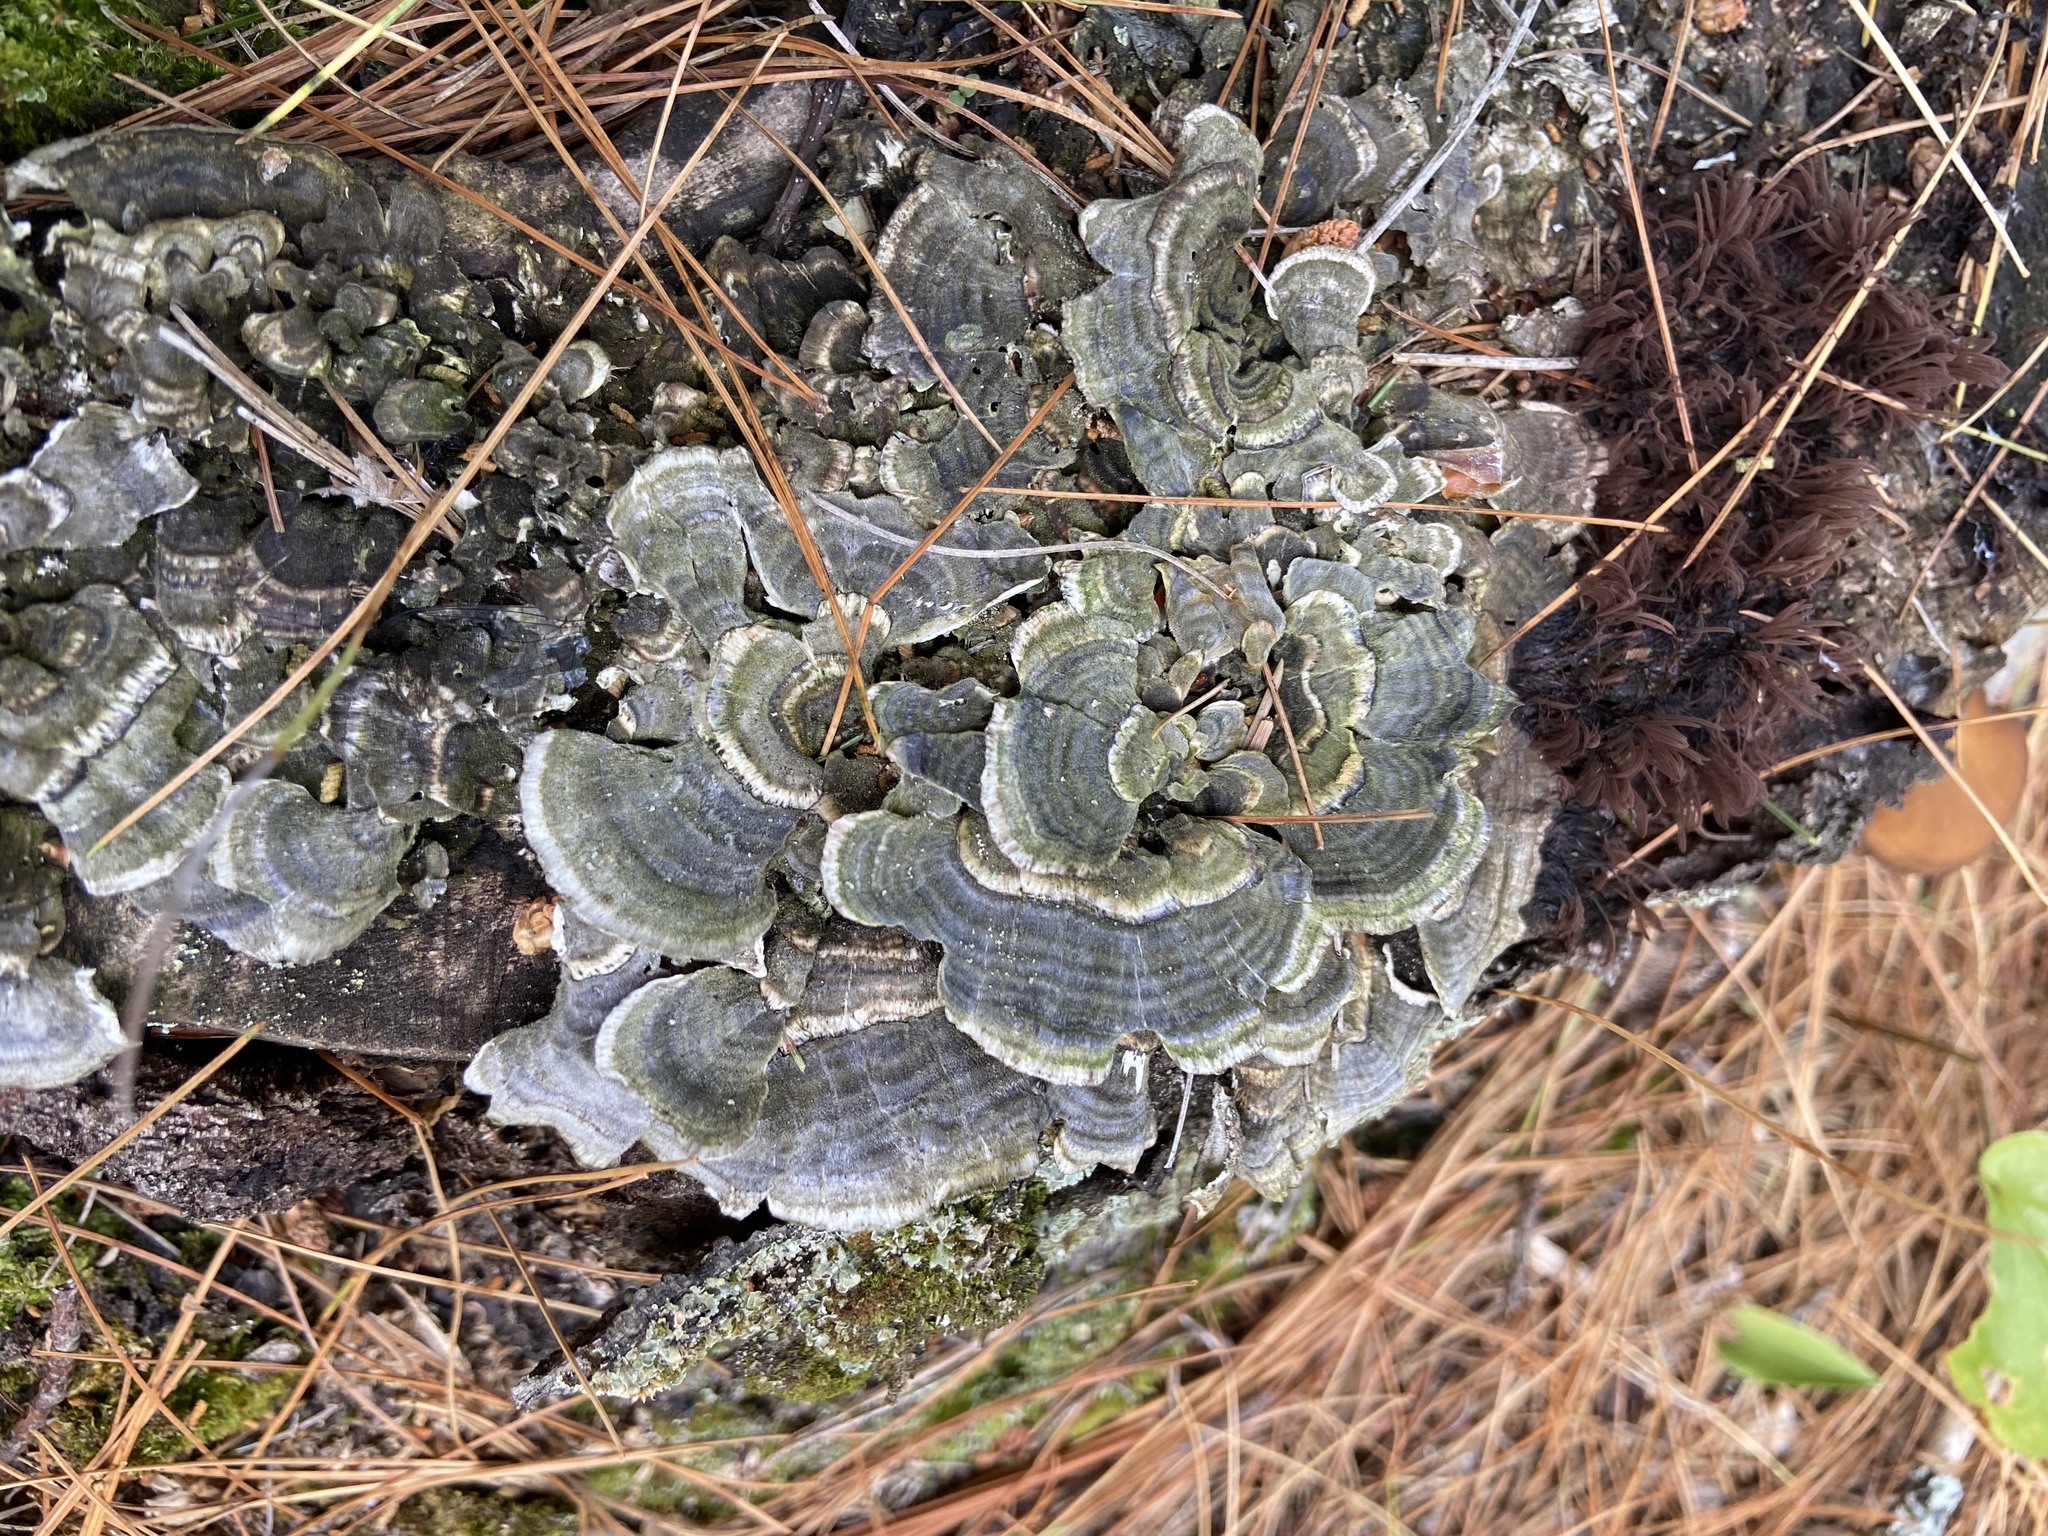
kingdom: Fungi
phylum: Basidiomycota
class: Agaricomycetes
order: Polyporales
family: Polyporaceae
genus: Trametes
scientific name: Trametes versicolor
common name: Turkeytail
